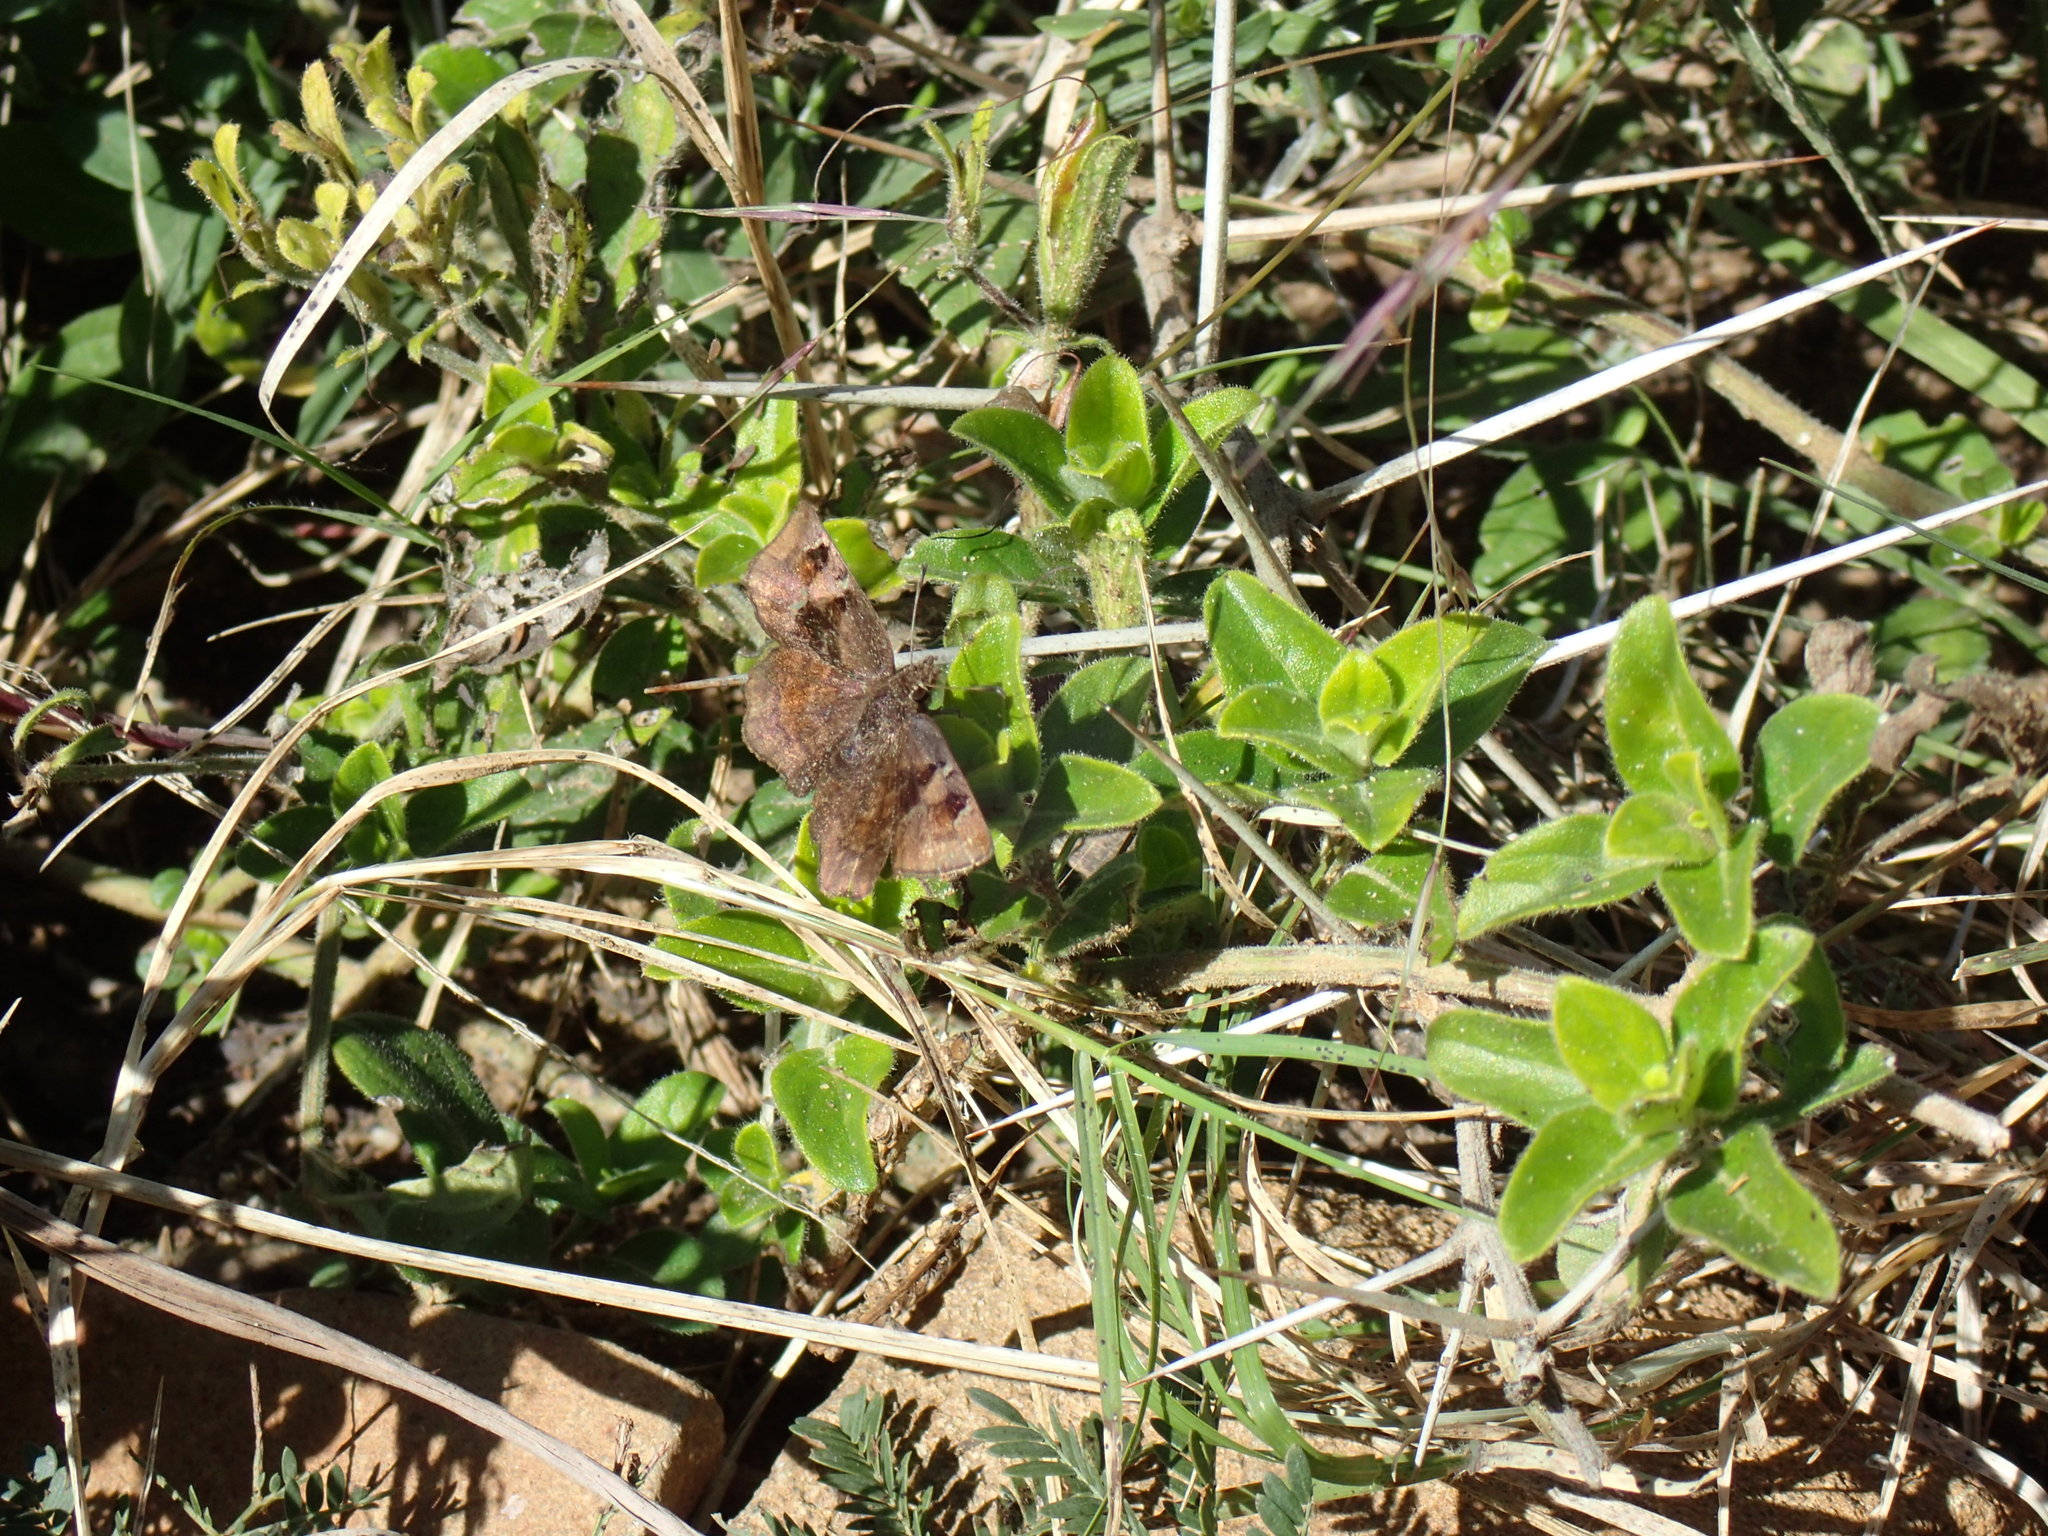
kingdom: Animalia
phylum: Arthropoda
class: Insecta
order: Lepidoptera
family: Hesperiidae
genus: Eretis
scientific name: Eretis umbra
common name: Small marbled elf
